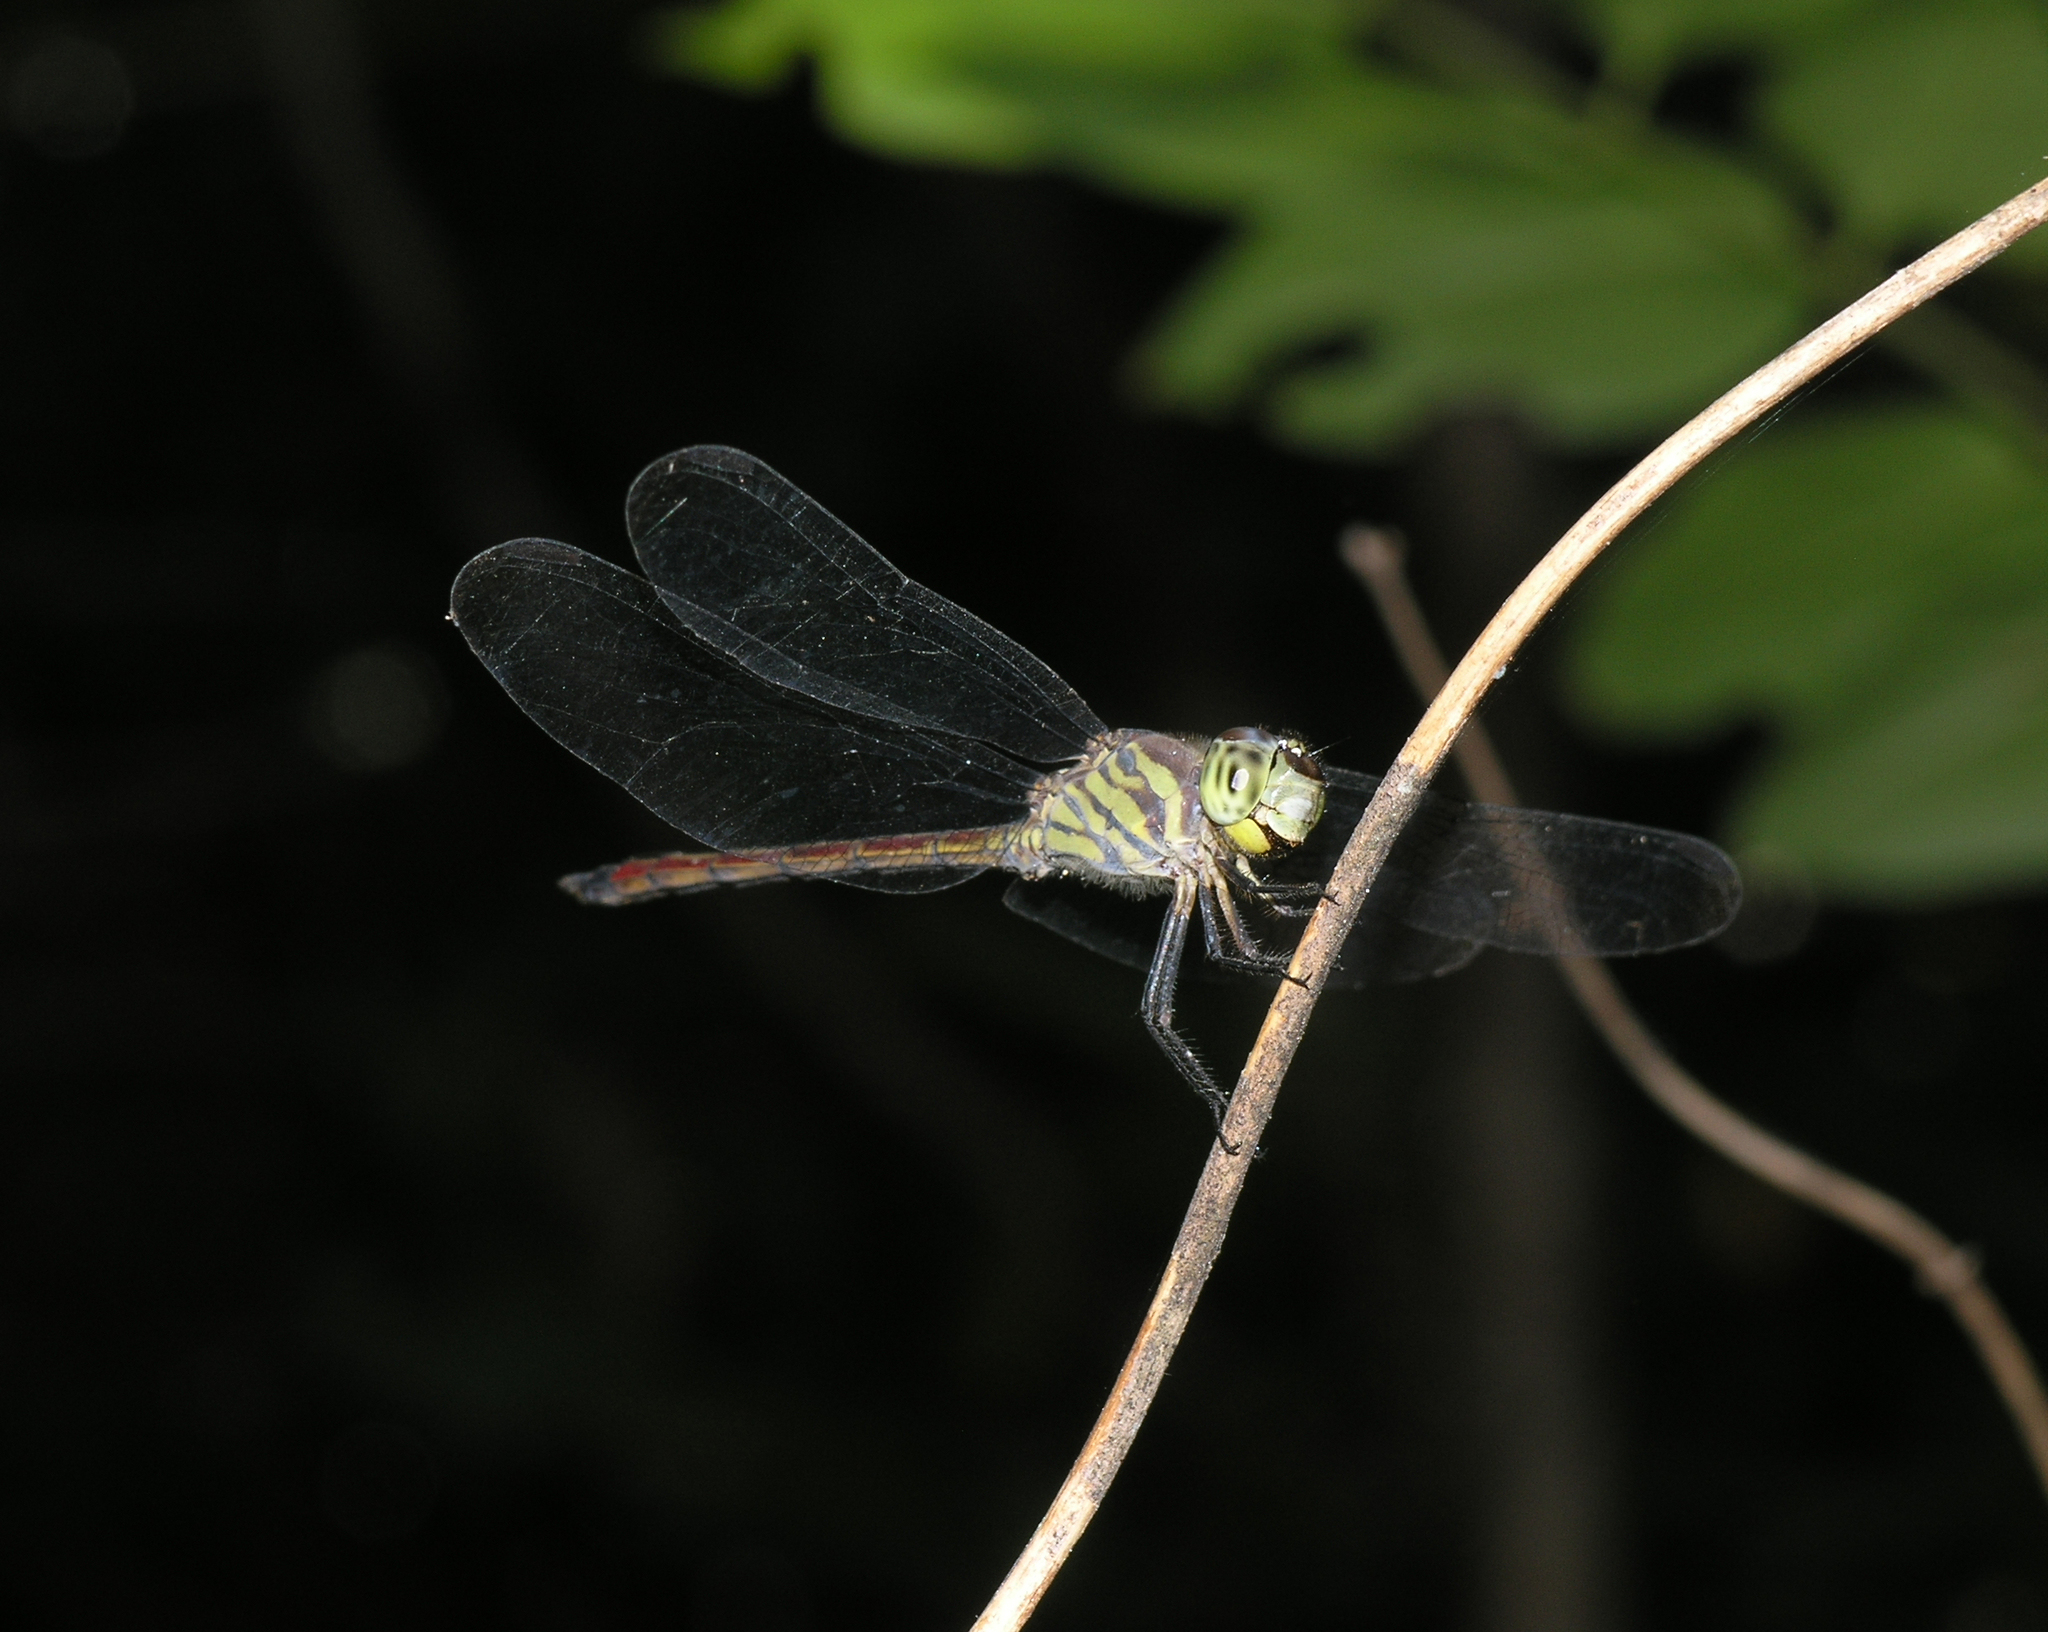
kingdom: Animalia
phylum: Arthropoda
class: Insecta
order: Odonata
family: Libellulidae
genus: Lathrecista
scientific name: Lathrecista asiatica
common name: Scarlet grenadier
